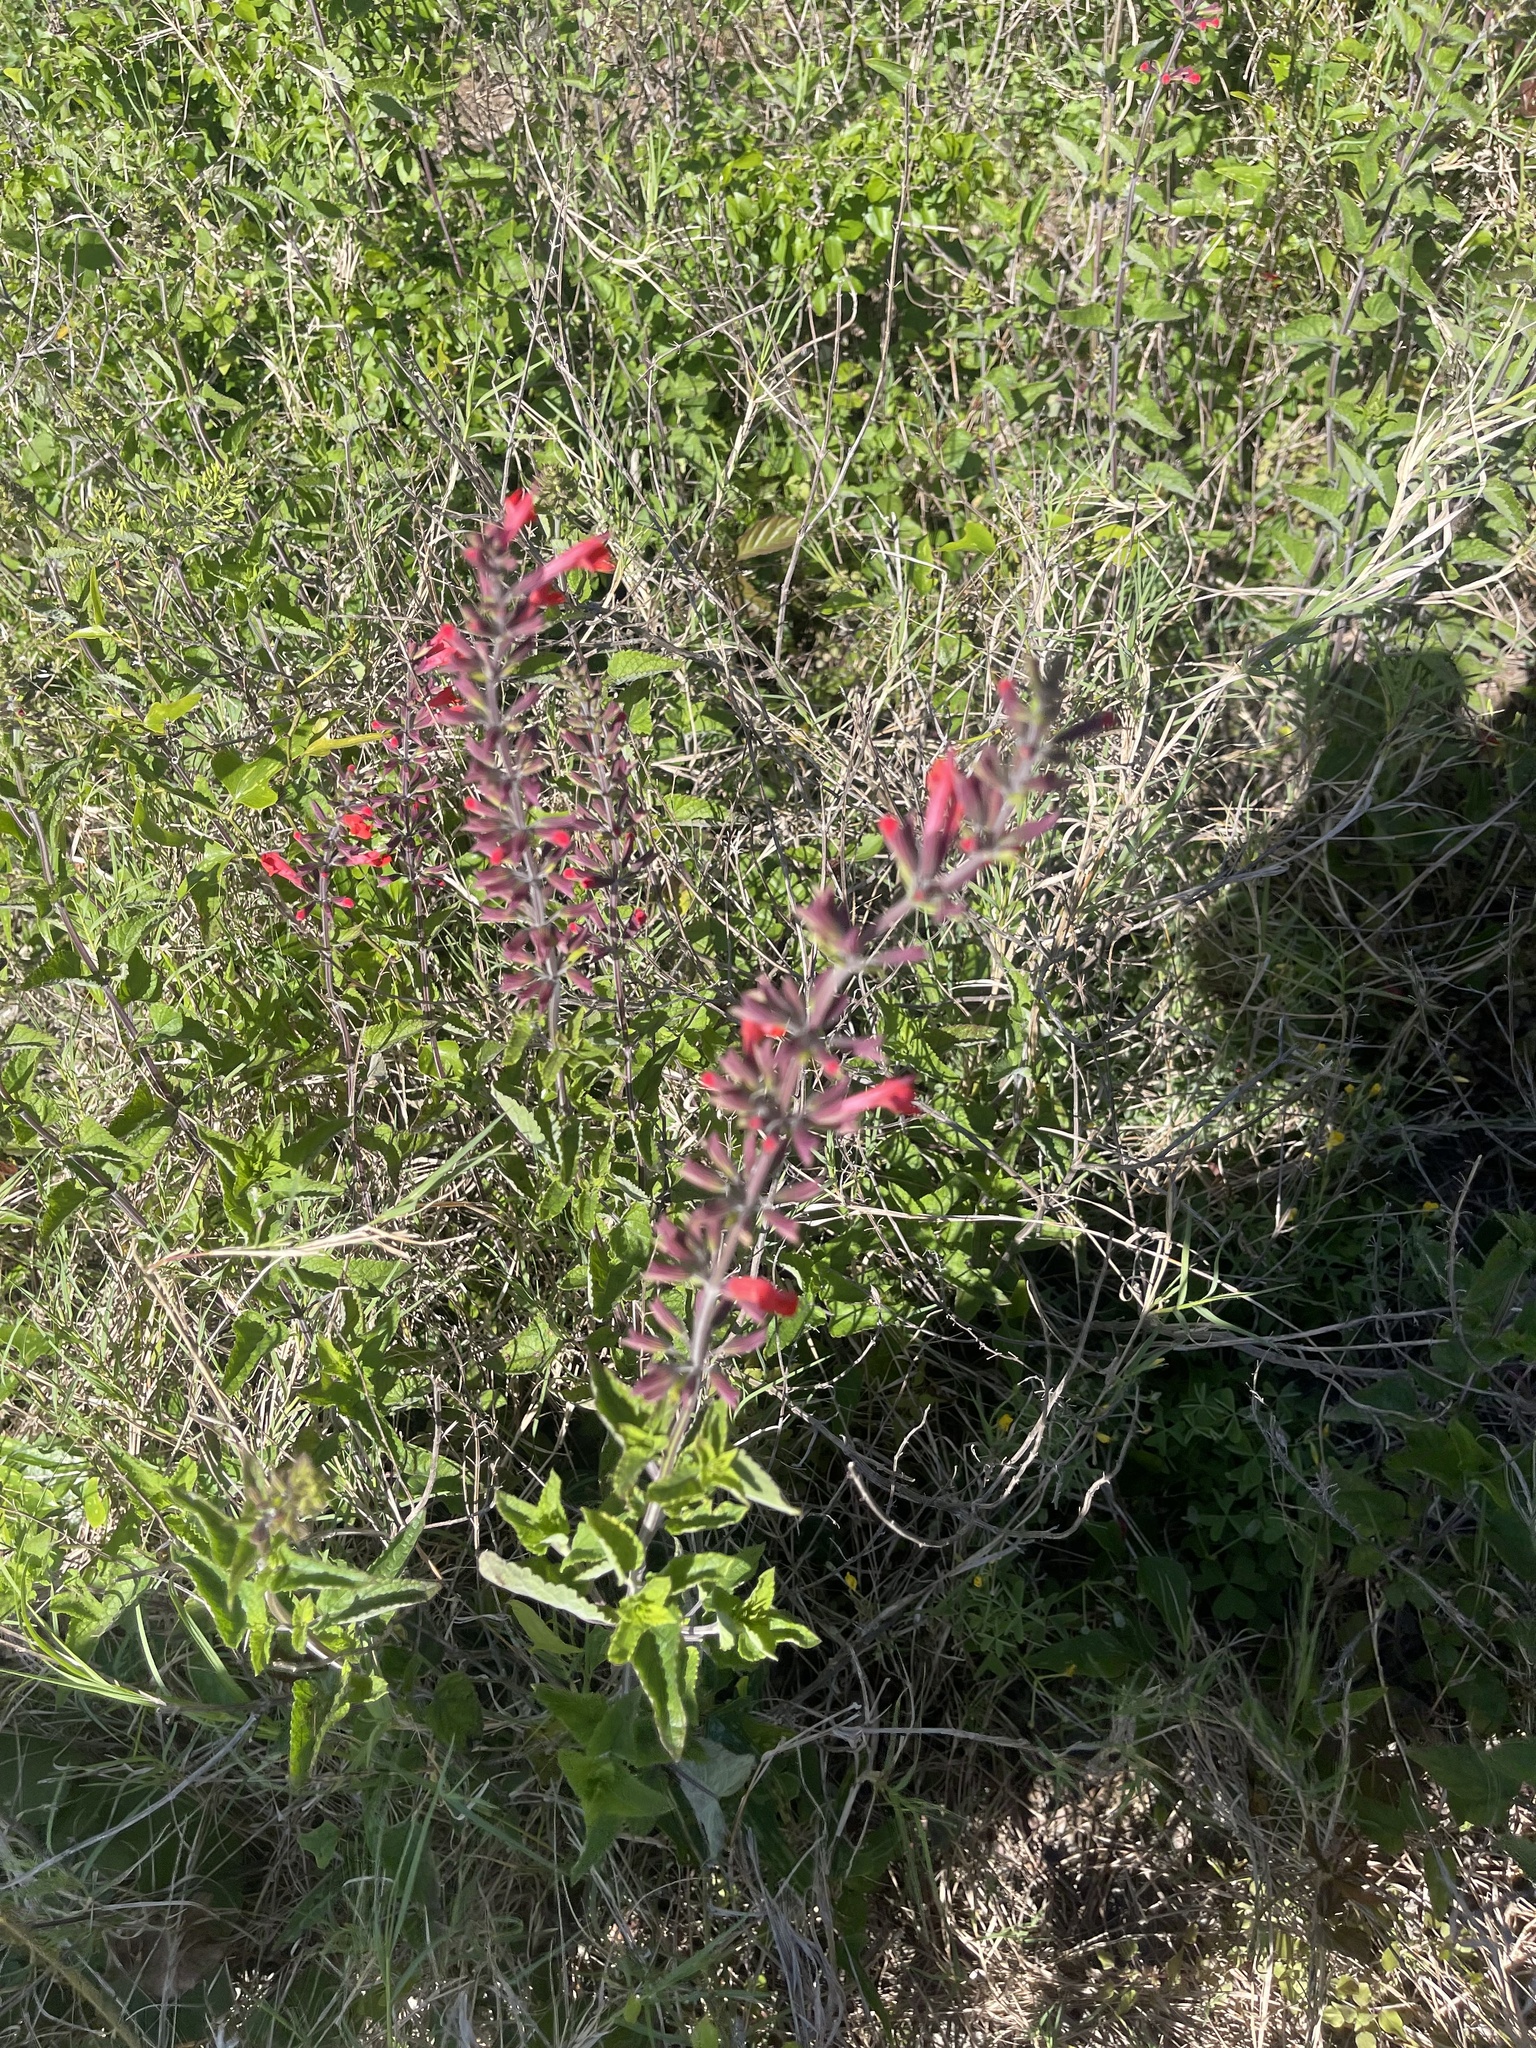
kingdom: Plantae
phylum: Tracheophyta
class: Magnoliopsida
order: Lamiales
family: Lamiaceae
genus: Salvia
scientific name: Salvia coccinea
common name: Blood sage
